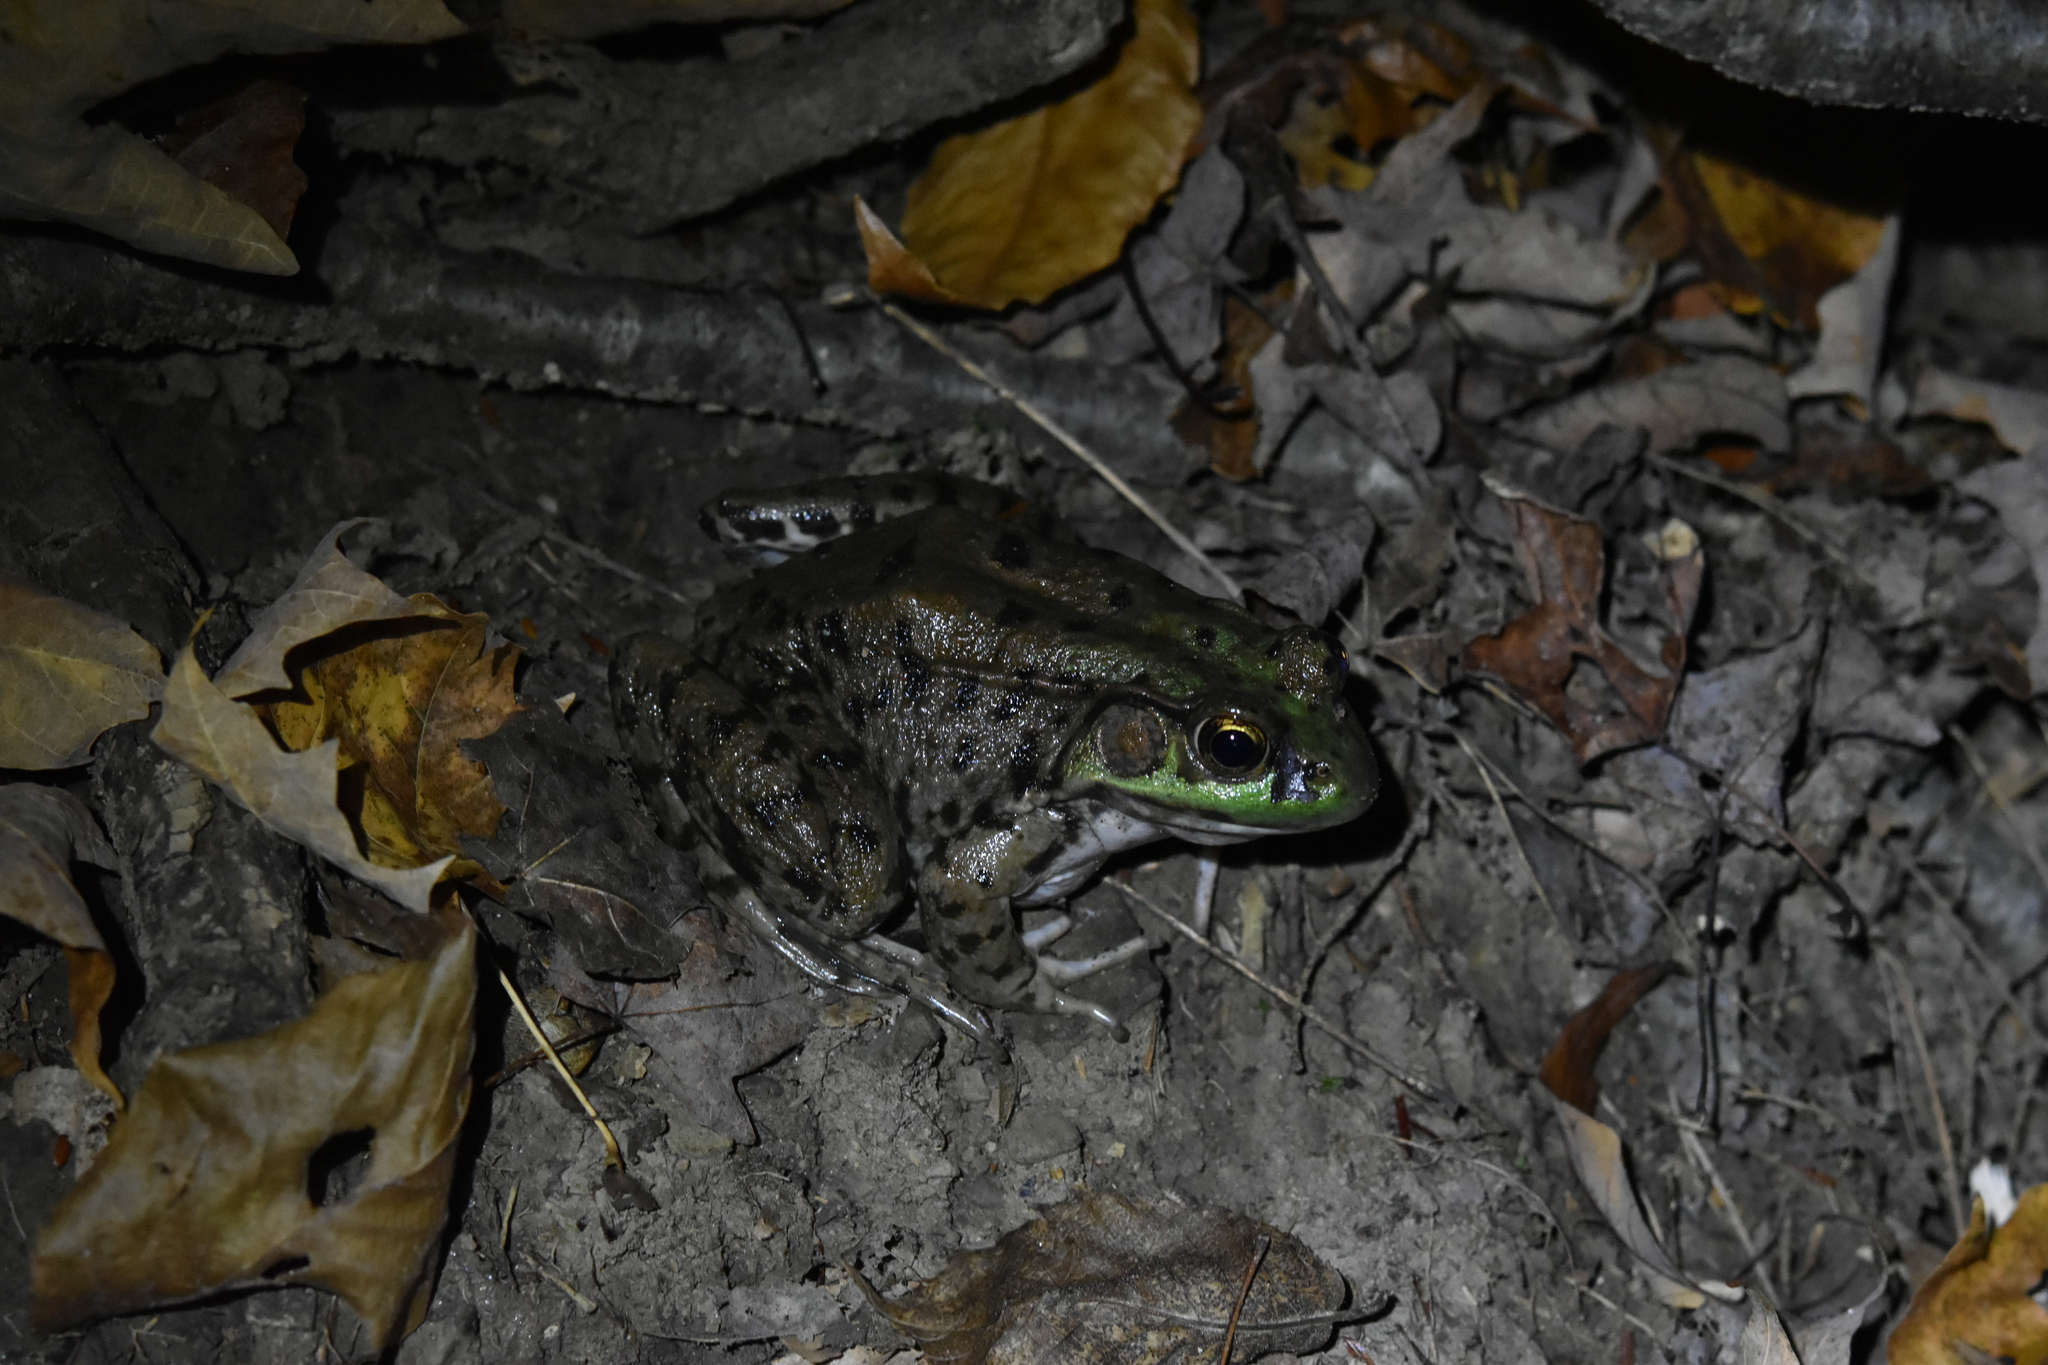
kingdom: Animalia
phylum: Chordata
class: Amphibia
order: Anura
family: Ranidae
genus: Lithobates
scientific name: Lithobates clamitans
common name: Green frog
